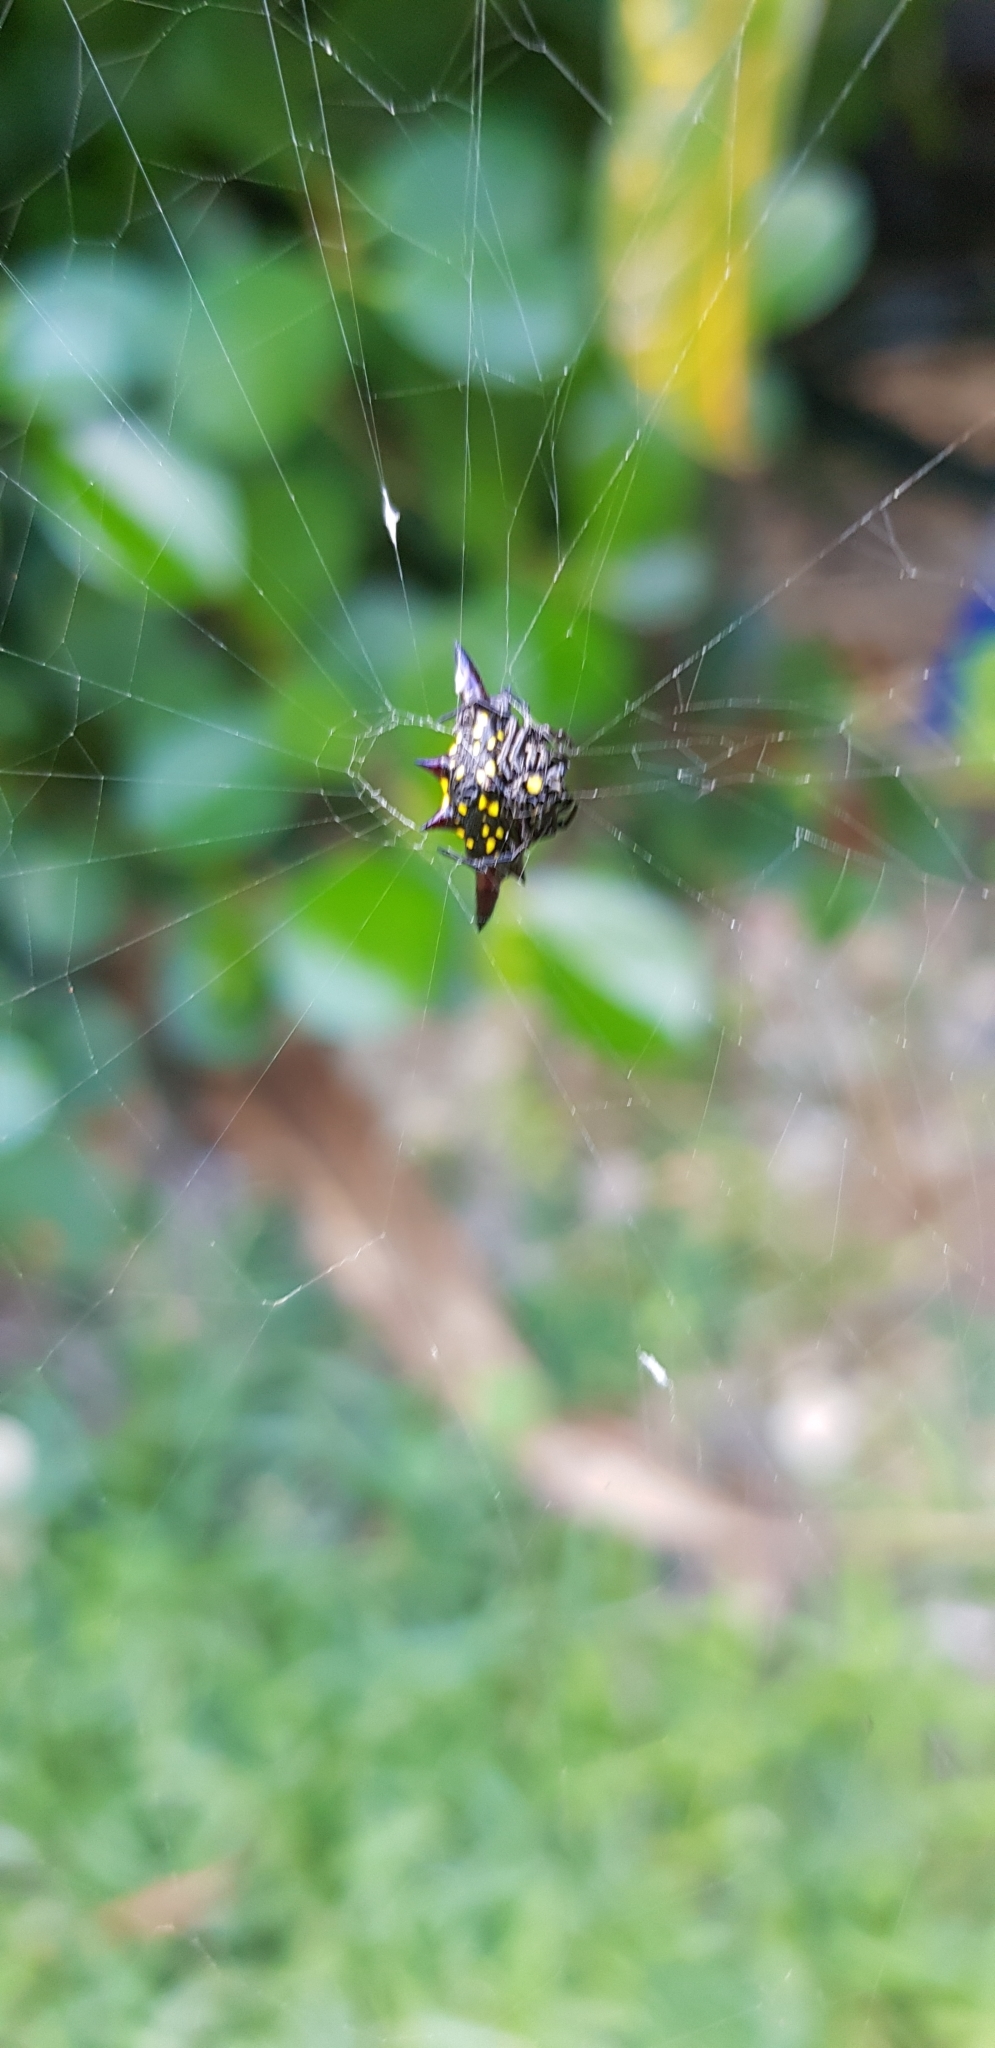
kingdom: Animalia
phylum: Arthropoda
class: Arachnida
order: Araneae
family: Araneidae
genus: Gasteracantha
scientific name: Gasteracantha fornicata
